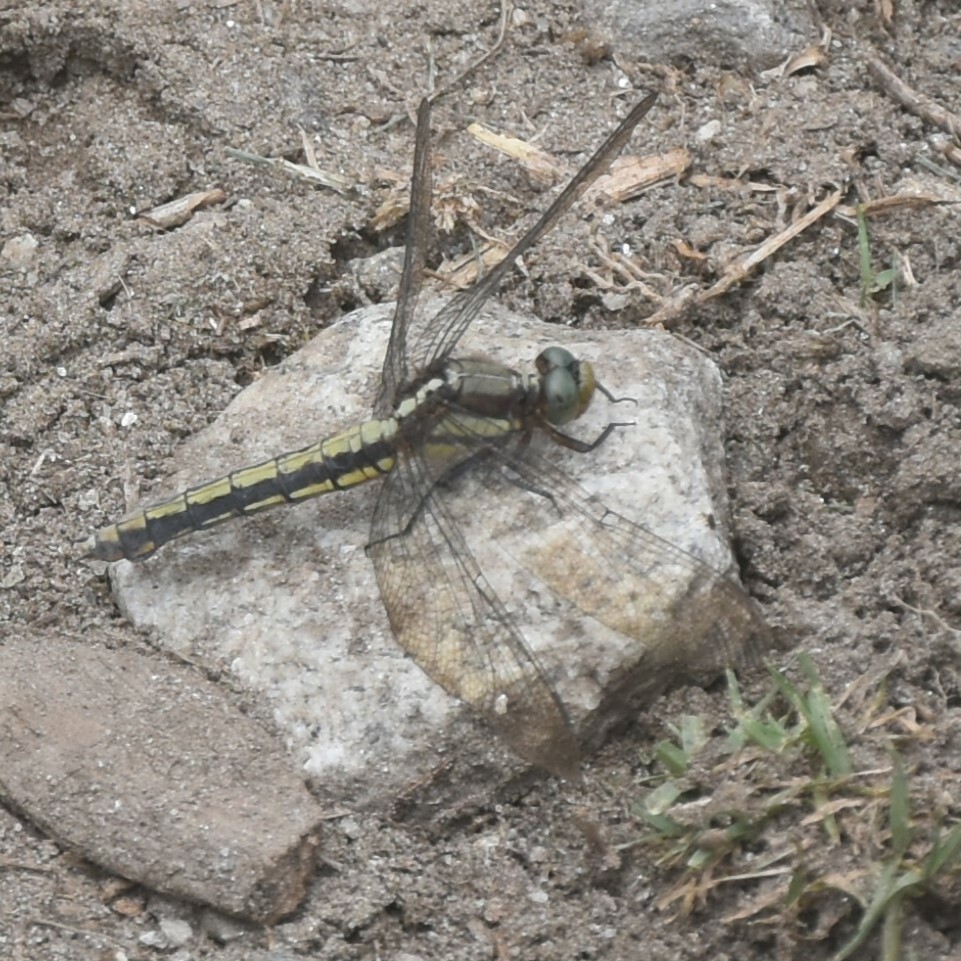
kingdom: Animalia
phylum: Arthropoda
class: Insecta
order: Odonata
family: Libellulidae
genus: Orthetrum
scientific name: Orthetrum internum
